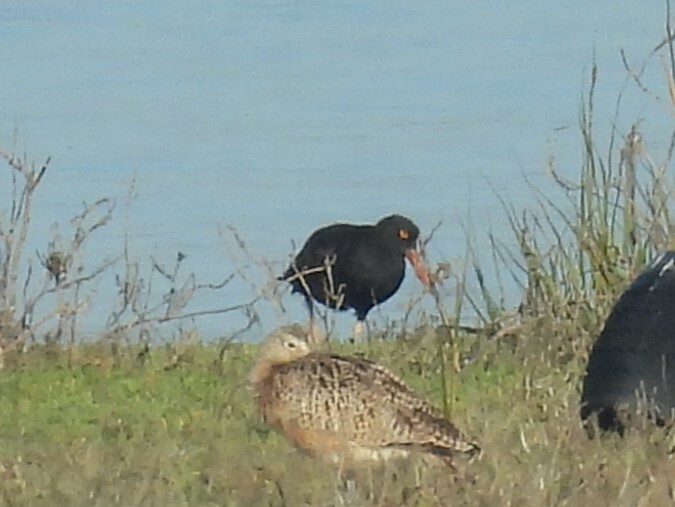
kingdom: Animalia
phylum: Chordata
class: Aves
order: Charadriiformes
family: Haematopodidae
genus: Haematopus
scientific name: Haematopus bachmani
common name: Black oystercatcher
